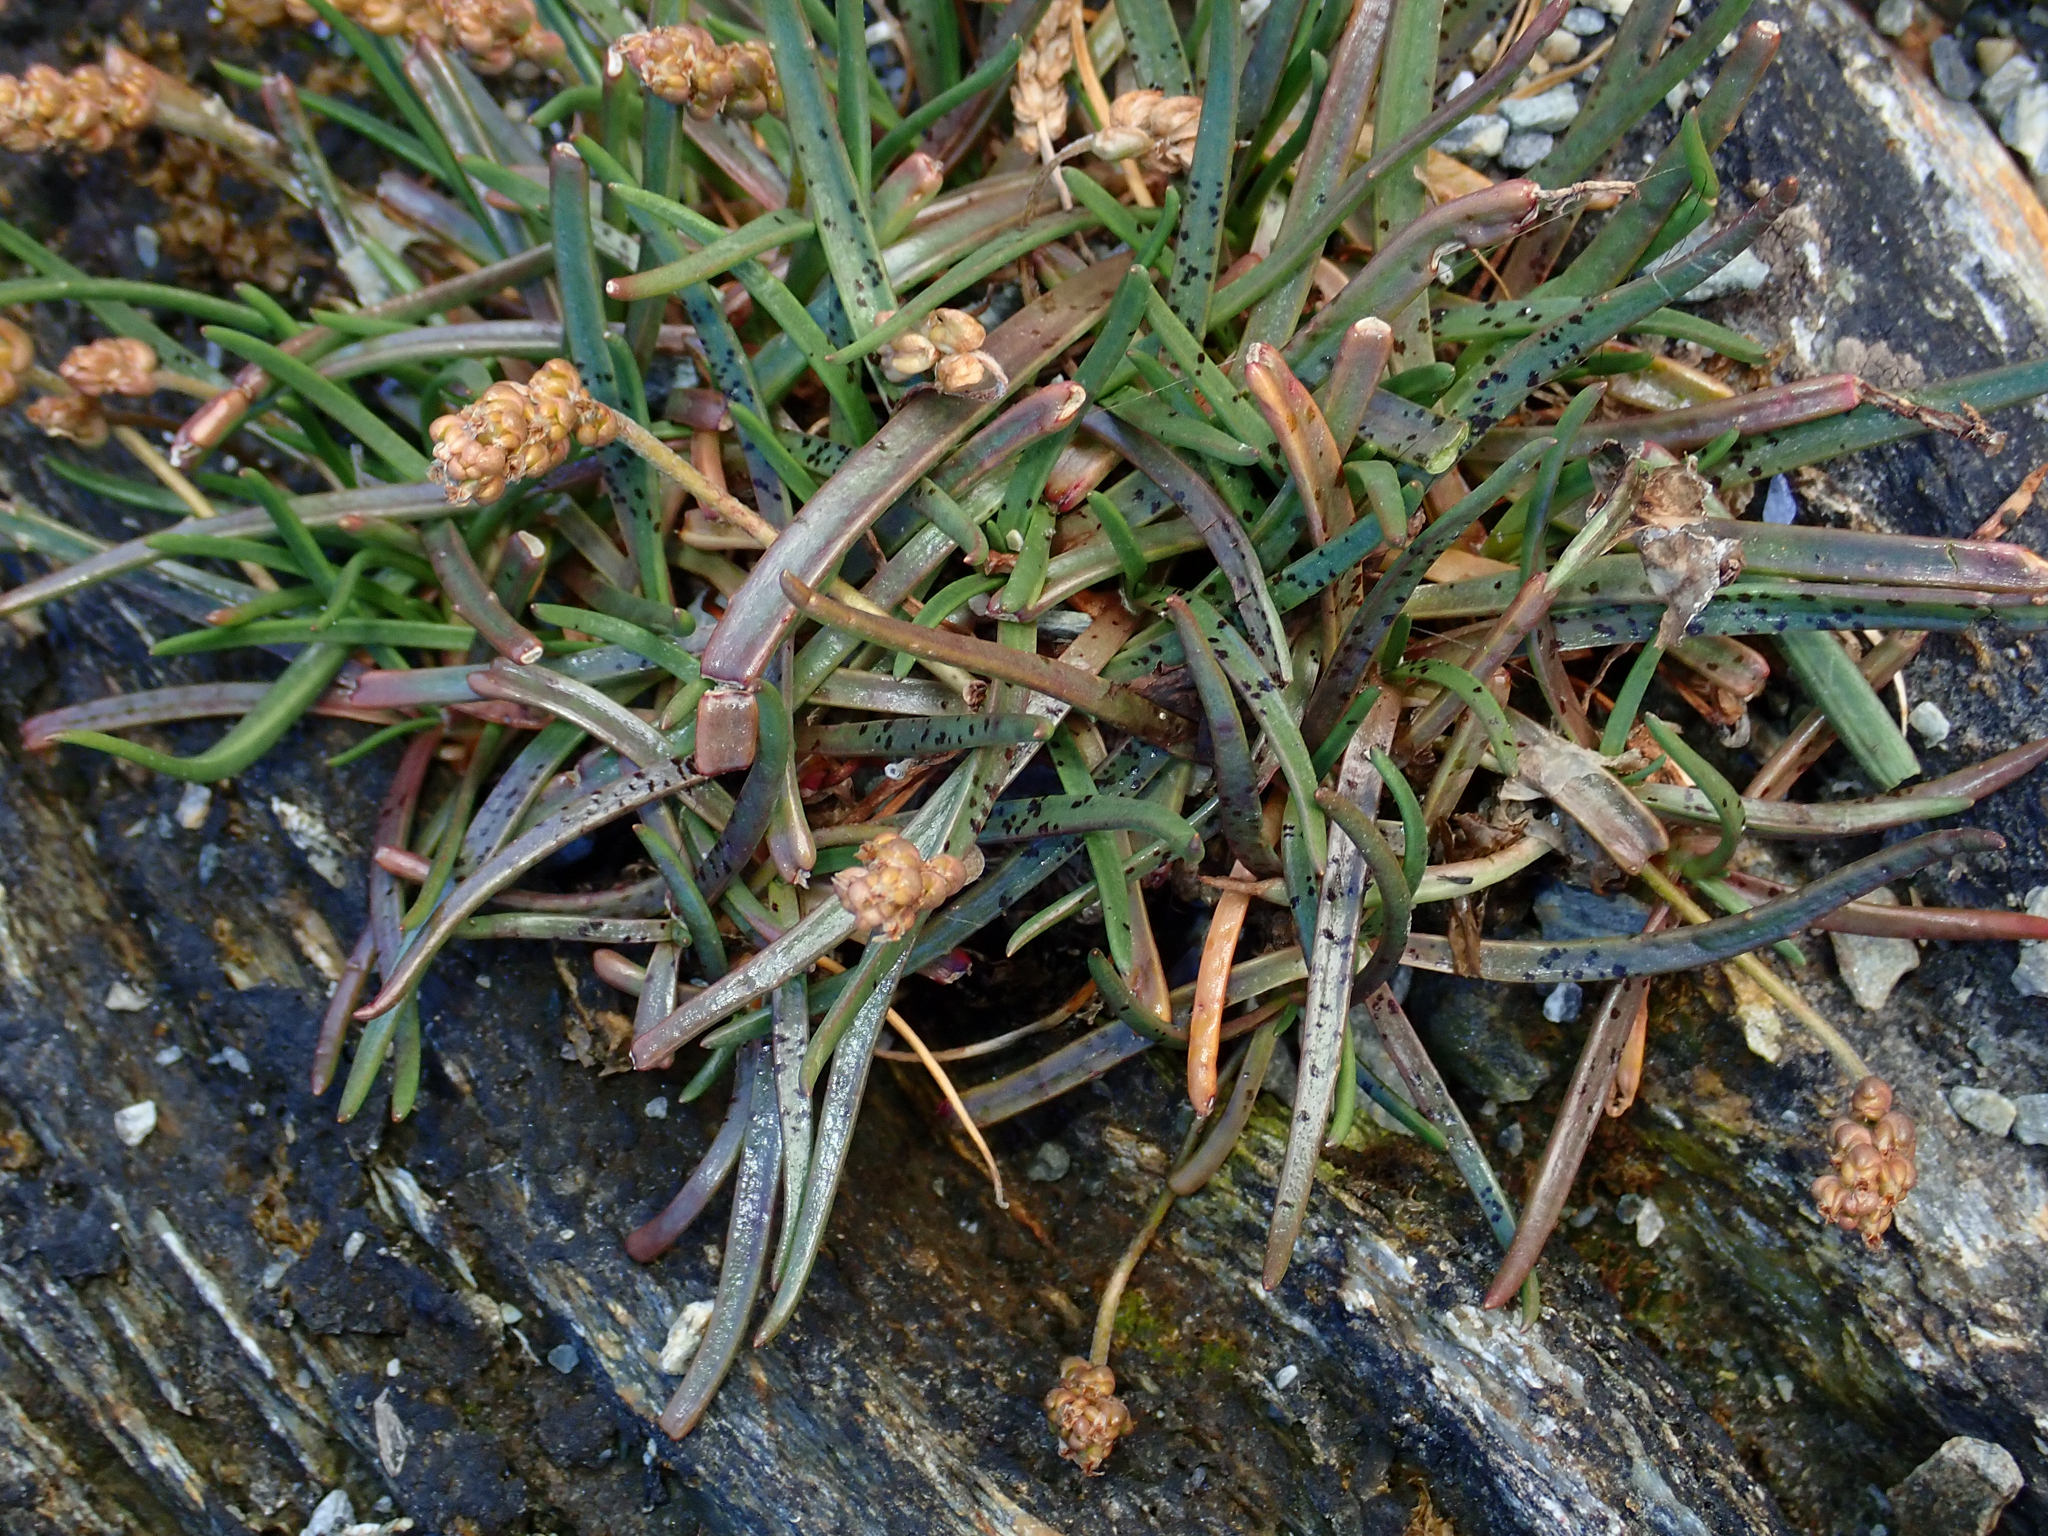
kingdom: Plantae
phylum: Tracheophyta
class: Magnoliopsida
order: Caryophyllales
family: Plumbaginaceae
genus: Armeria
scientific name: Armeria curvifolia
